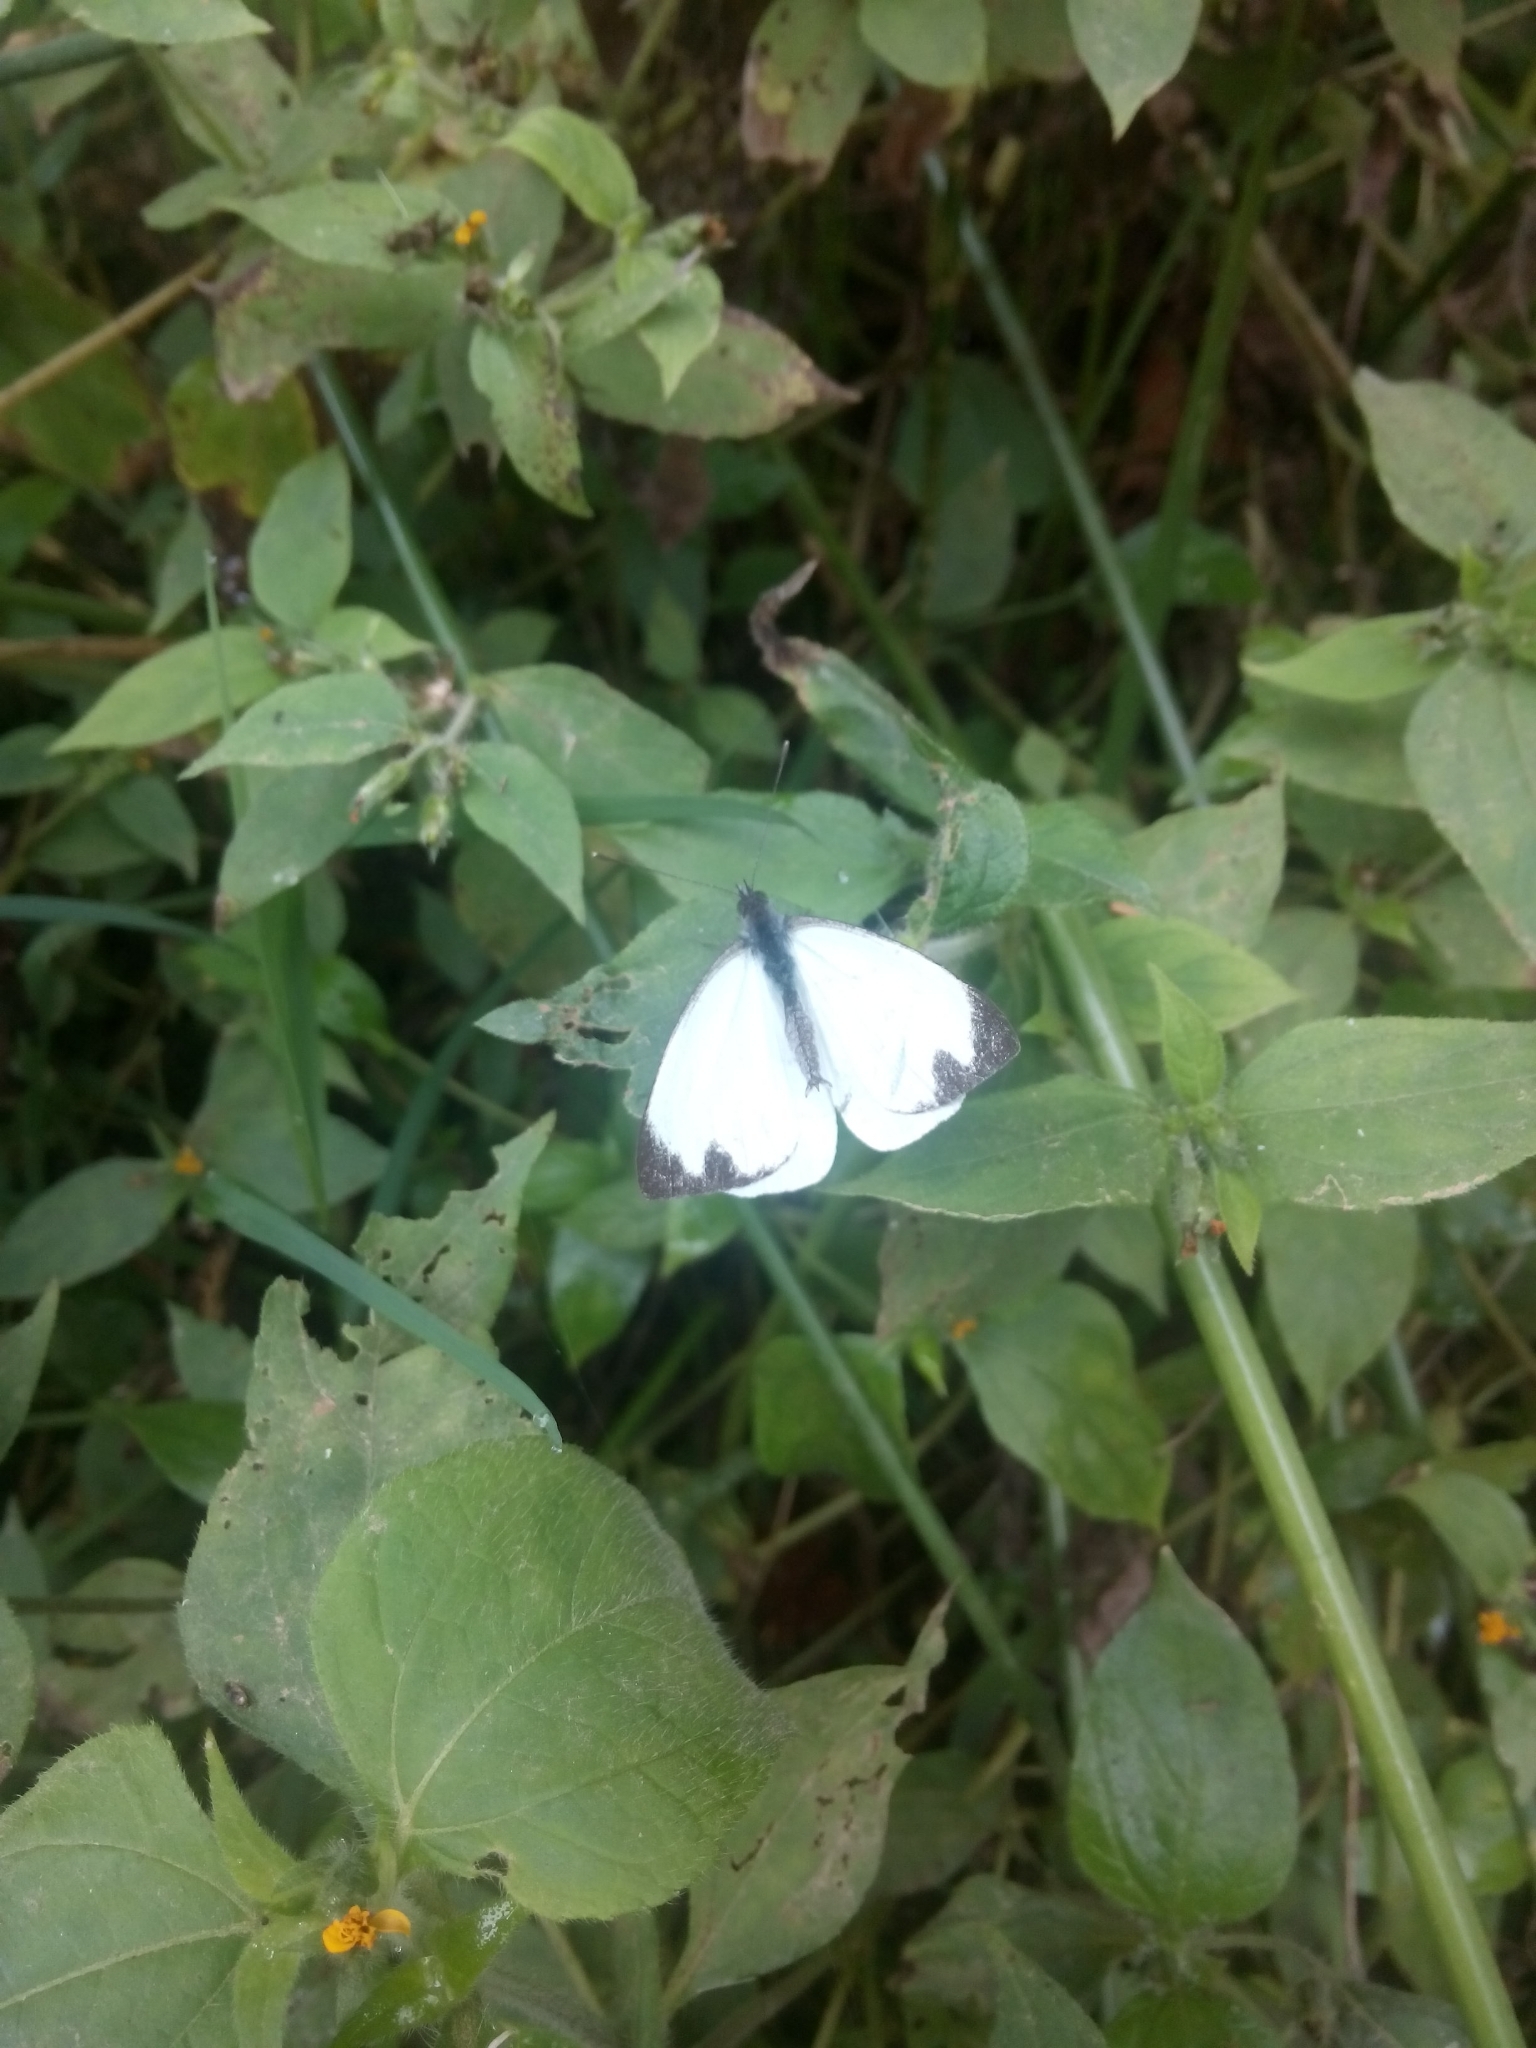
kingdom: Animalia
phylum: Arthropoda
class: Insecta
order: Lepidoptera
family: Pieridae
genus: Leptophobia
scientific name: Leptophobia aripa
